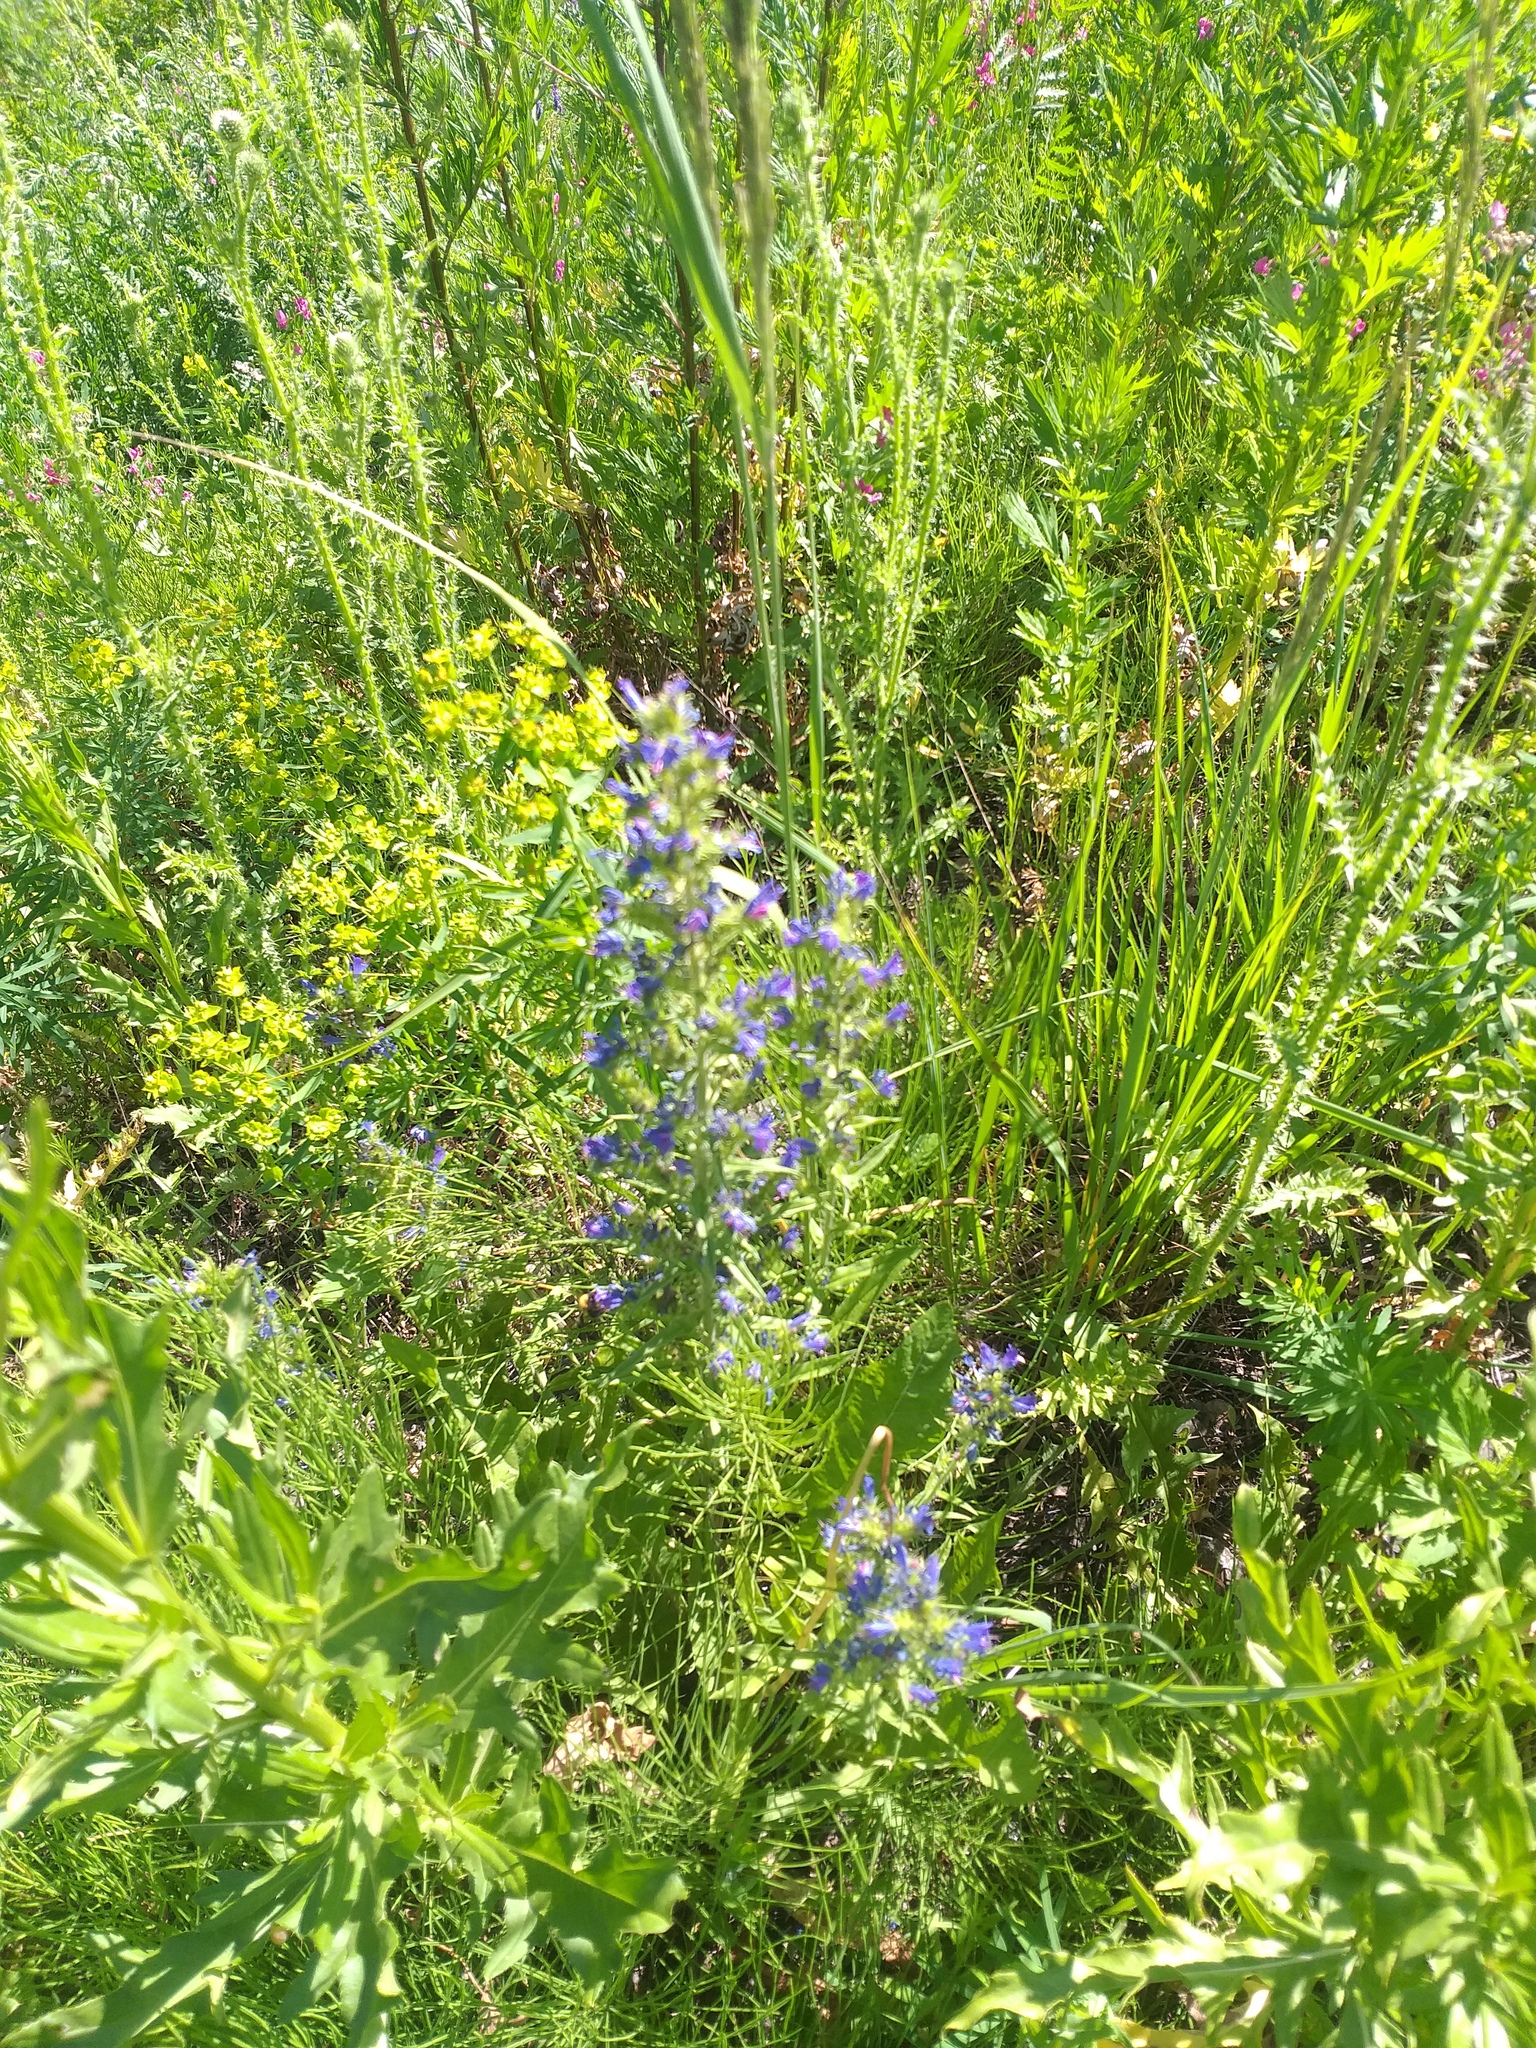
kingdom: Plantae
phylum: Tracheophyta
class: Magnoliopsida
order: Boraginales
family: Boraginaceae
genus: Echium
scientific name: Echium vulgare
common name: Common viper's bugloss
